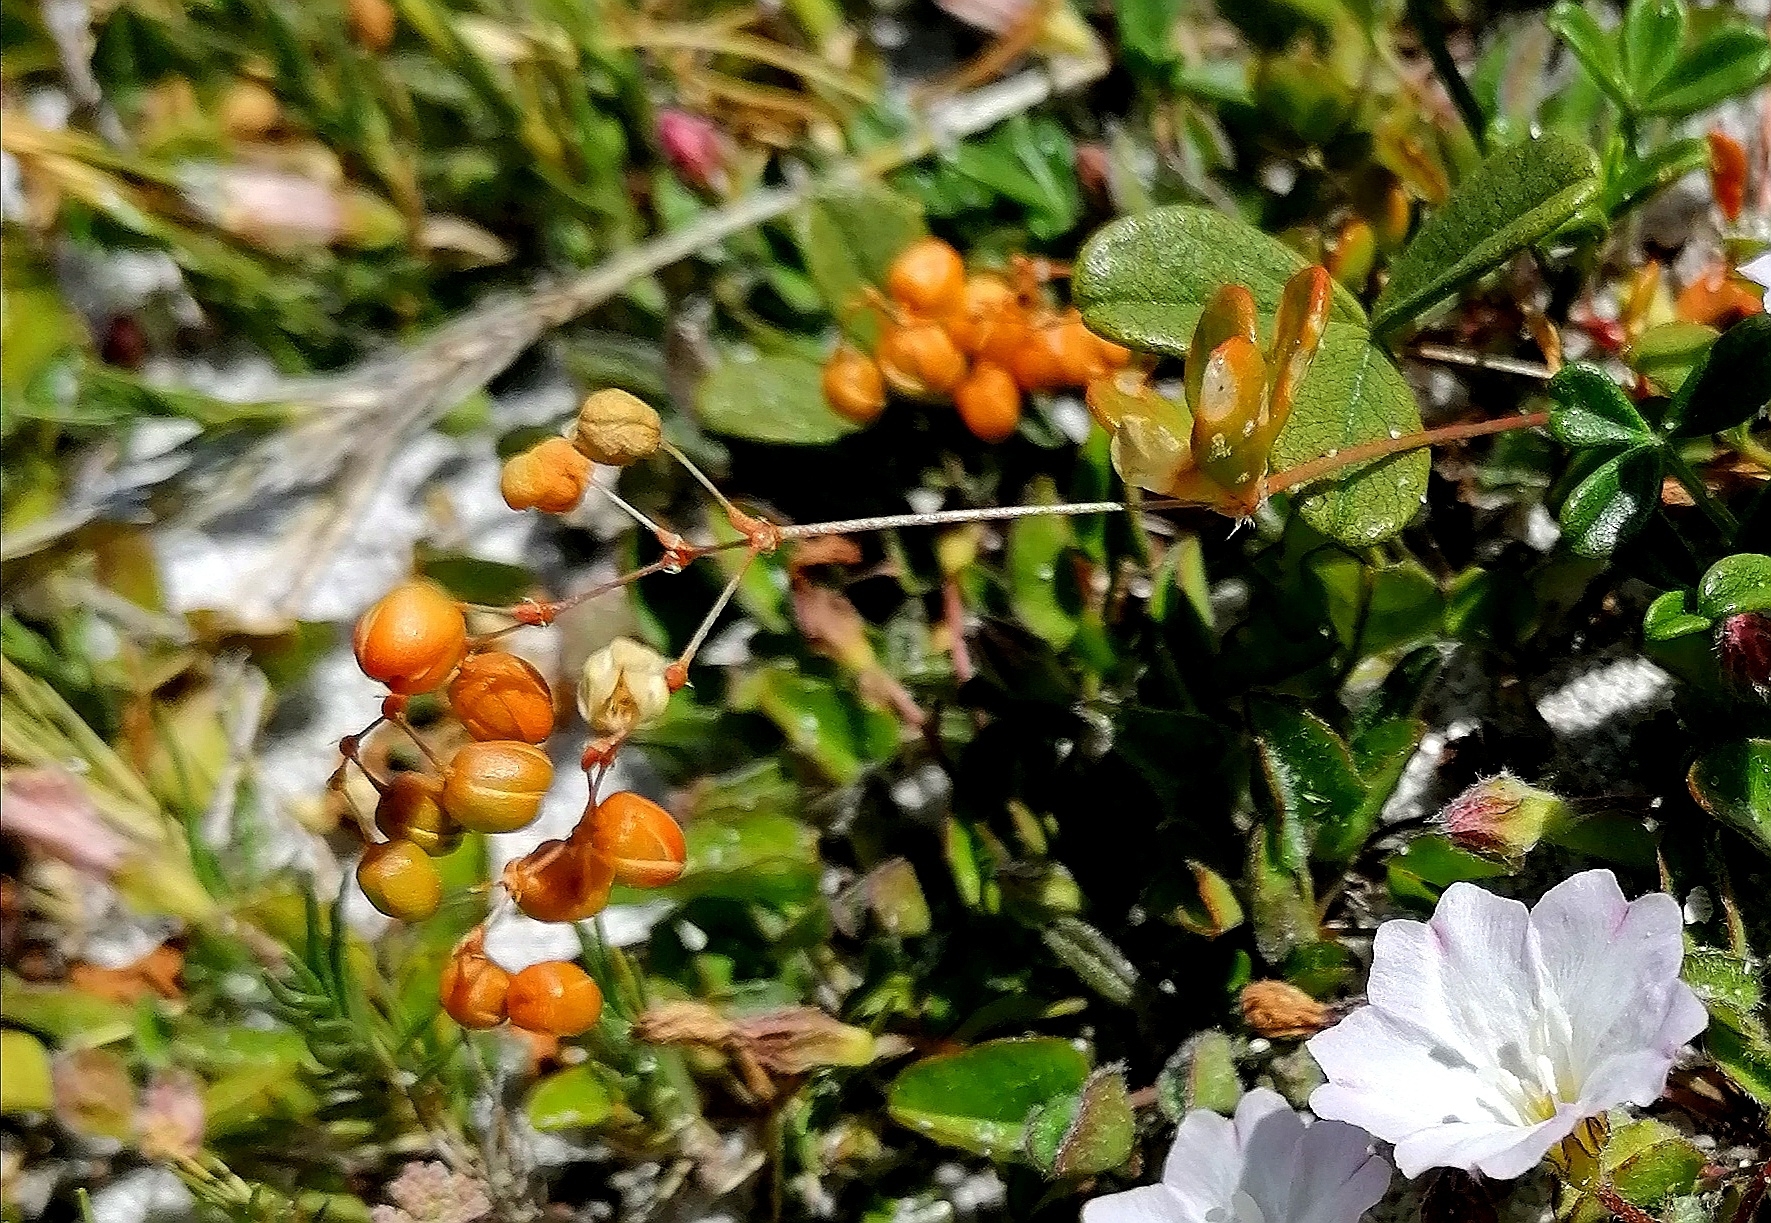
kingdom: Plantae
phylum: Tracheophyta
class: Magnoliopsida
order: Solanales
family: Convolvulaceae
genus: Falkia
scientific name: Falkia repens
